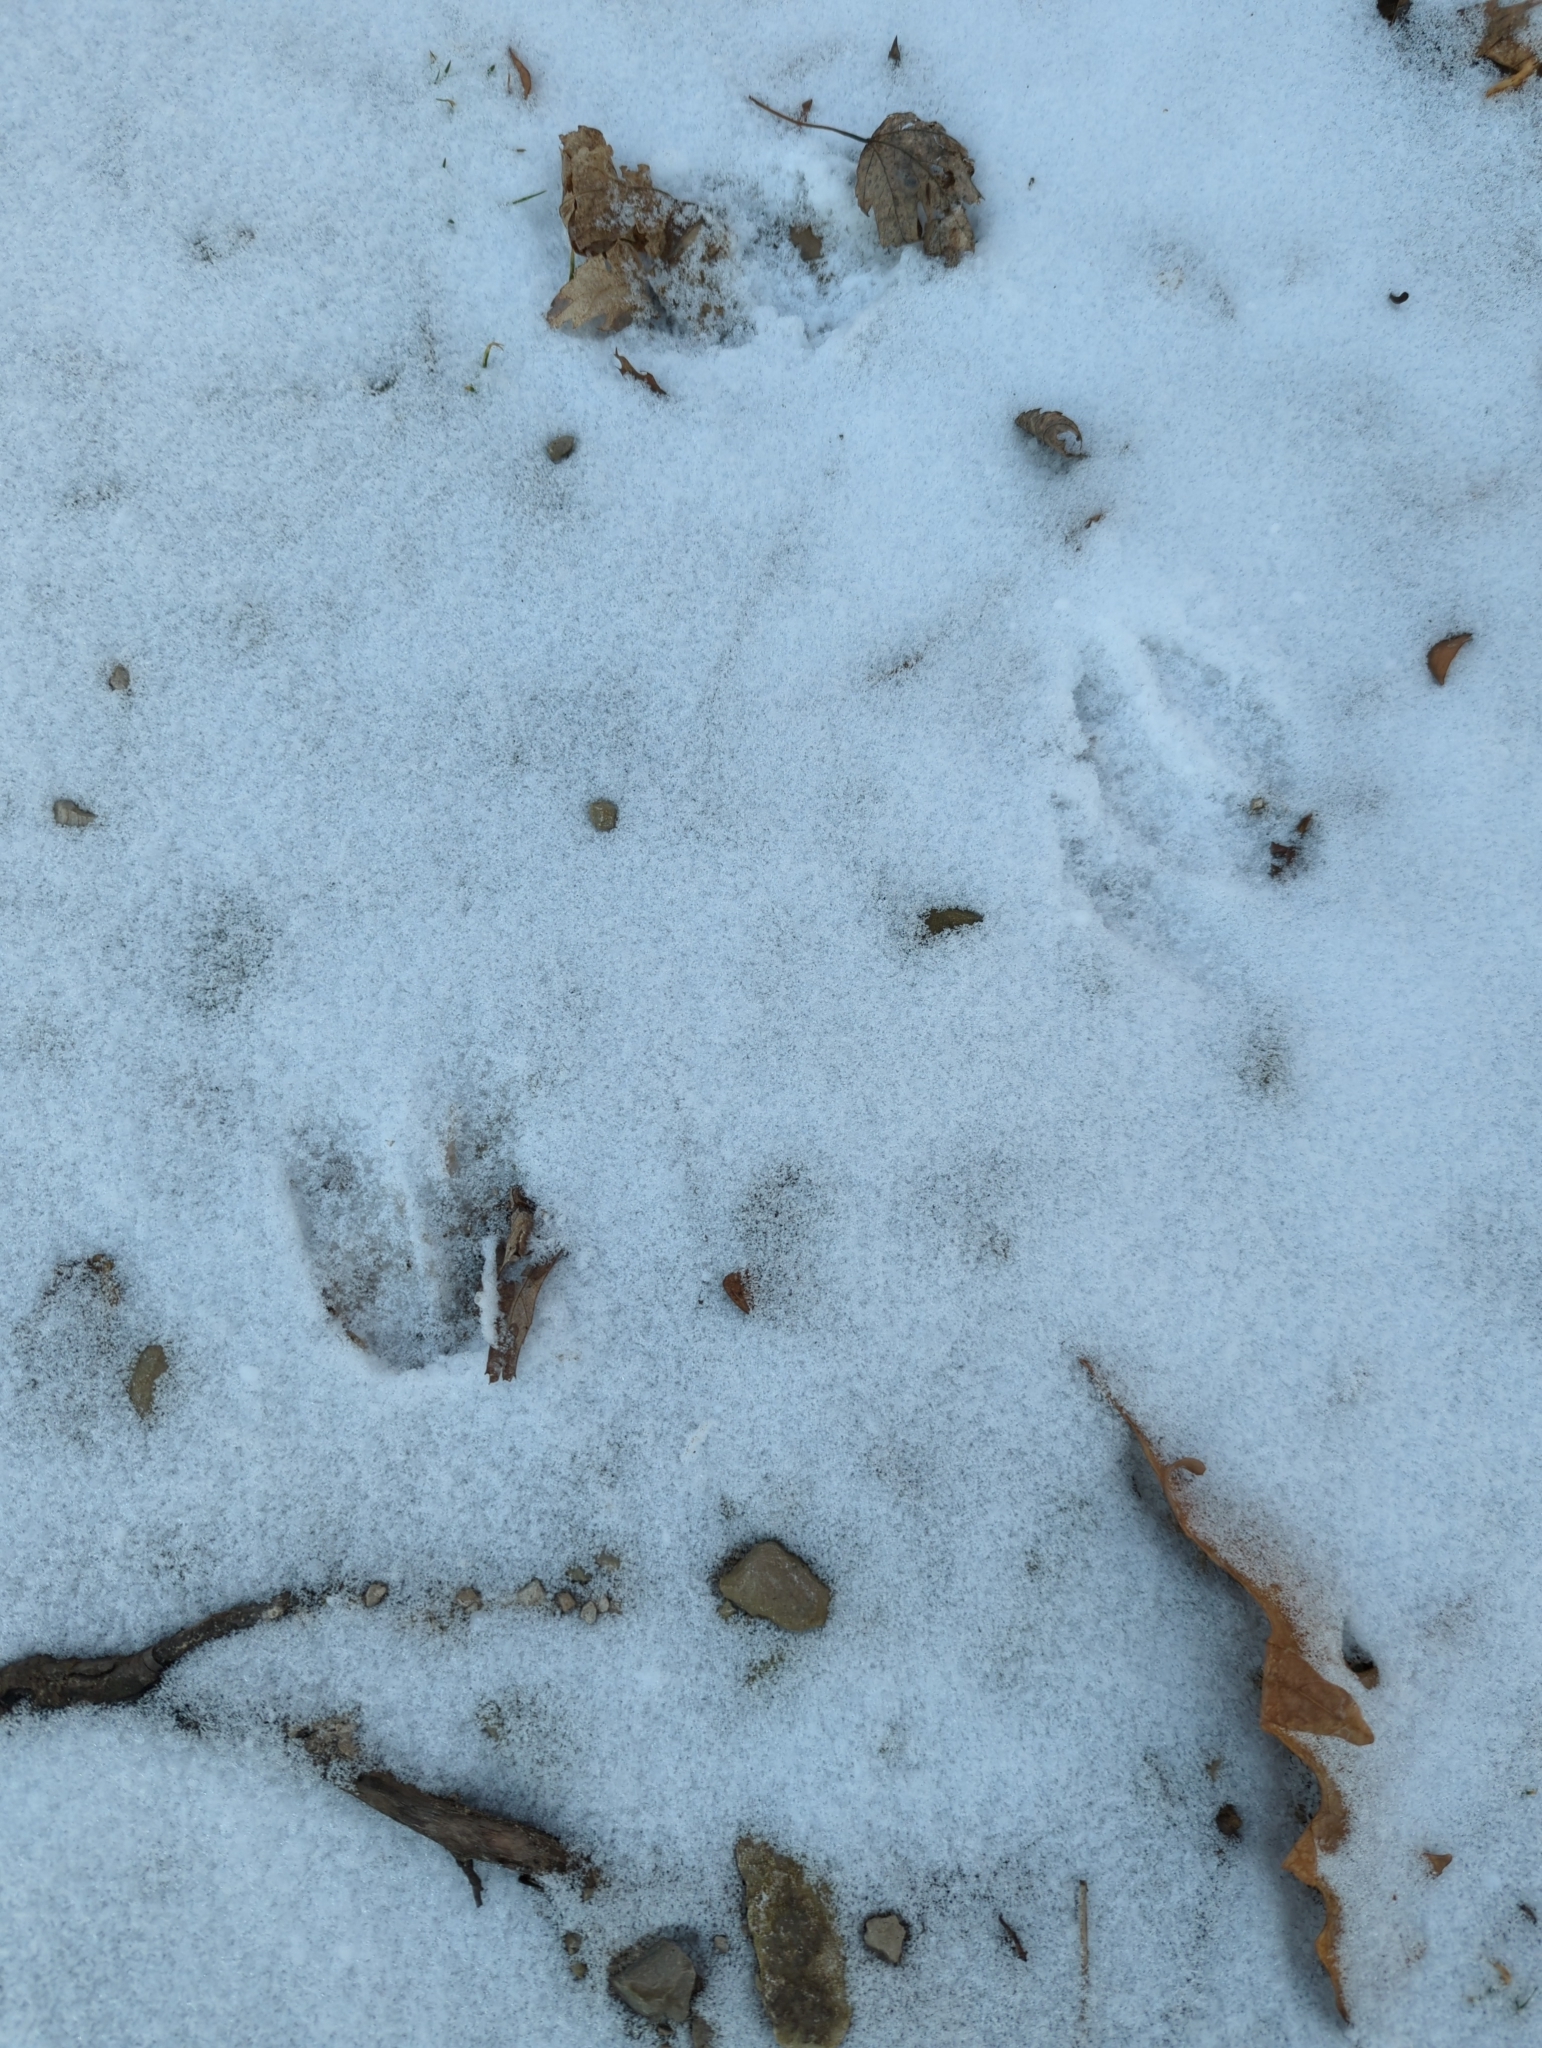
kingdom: Animalia
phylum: Chordata
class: Mammalia
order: Artiodactyla
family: Cervidae
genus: Odocoileus
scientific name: Odocoileus virginianus
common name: White-tailed deer
